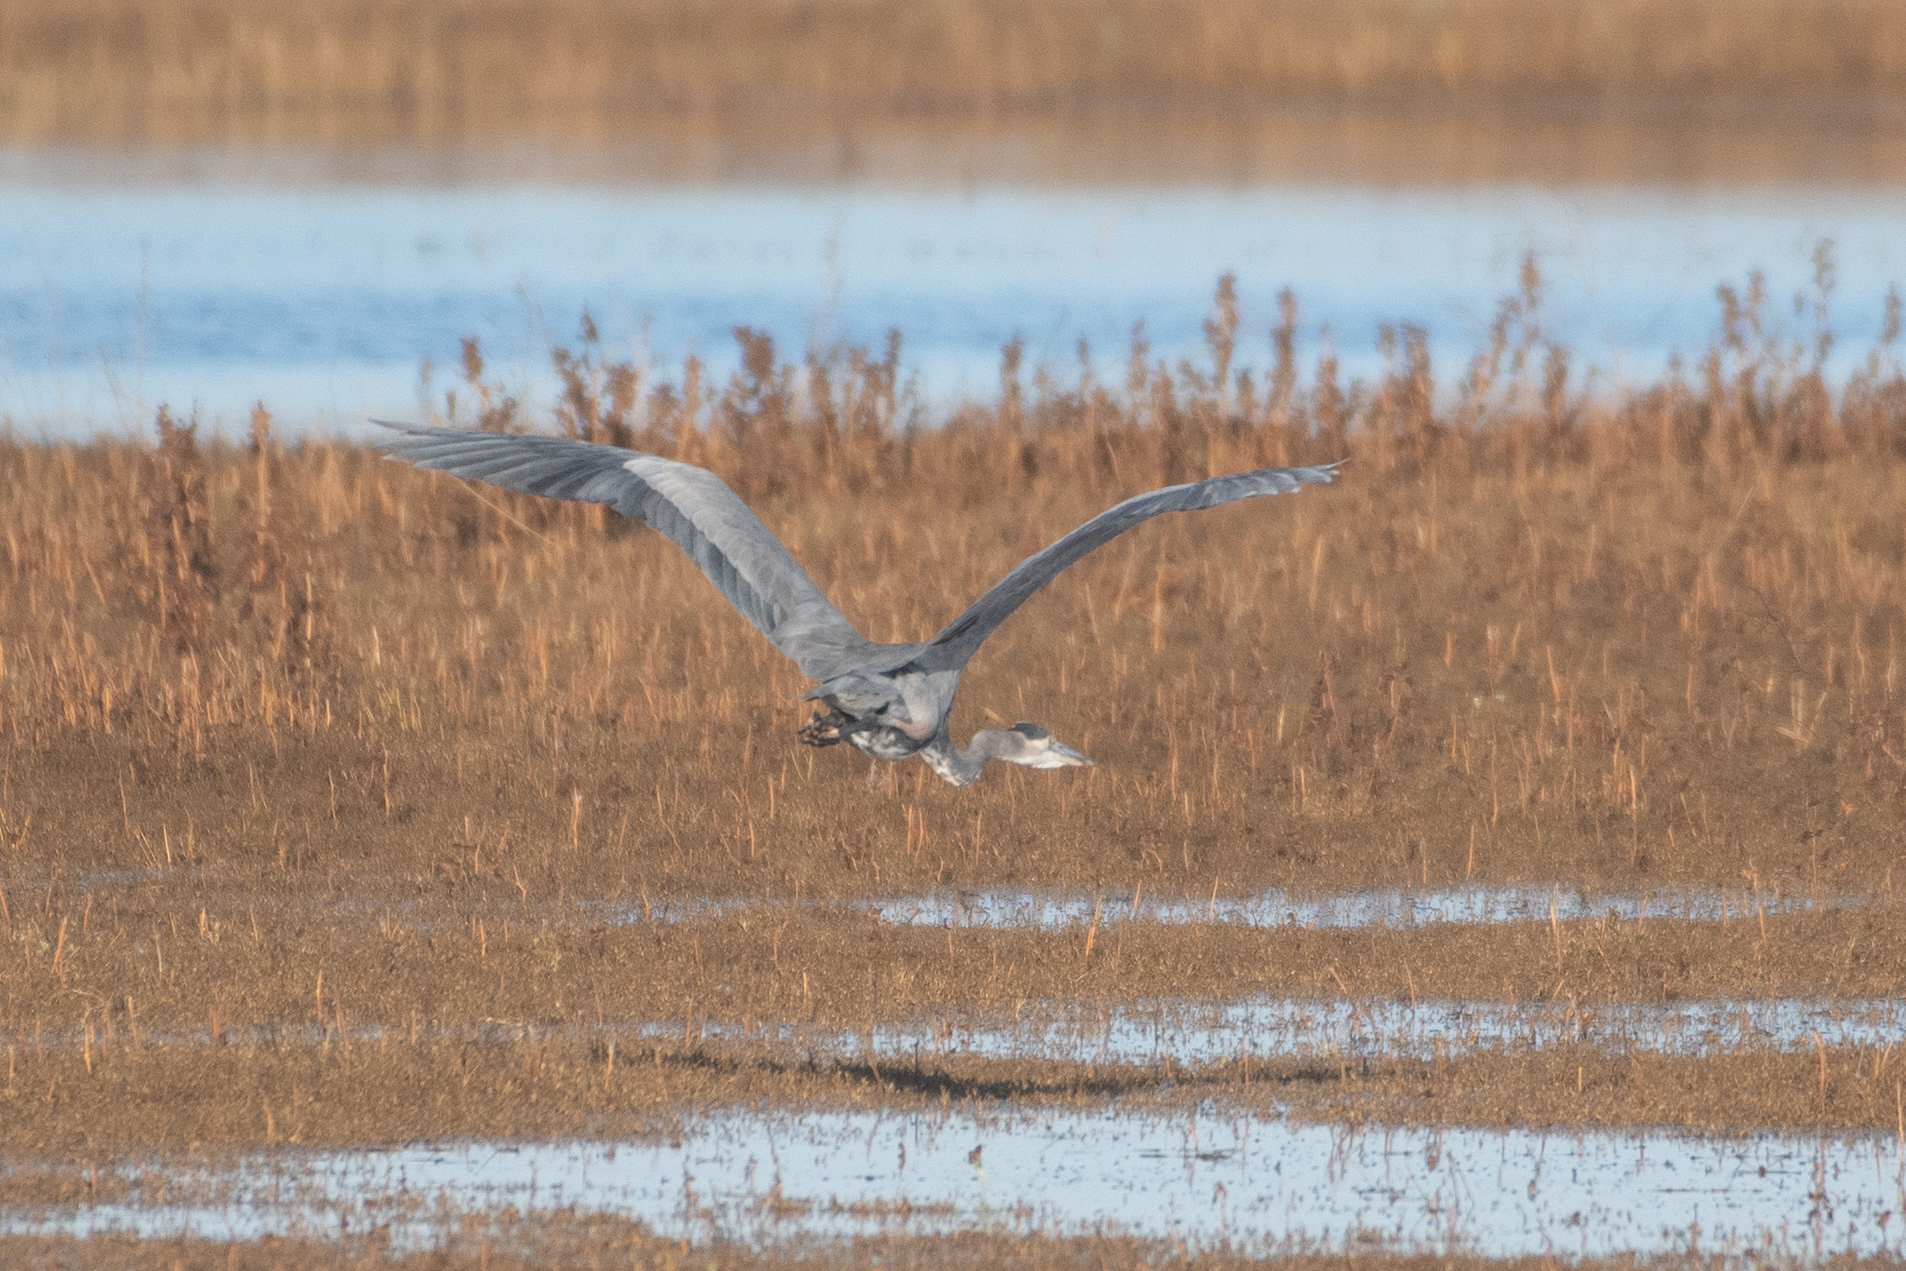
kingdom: Animalia
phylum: Chordata
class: Aves
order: Pelecaniformes
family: Ardeidae
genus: Ardea
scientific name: Ardea herodias
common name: Great blue heron
